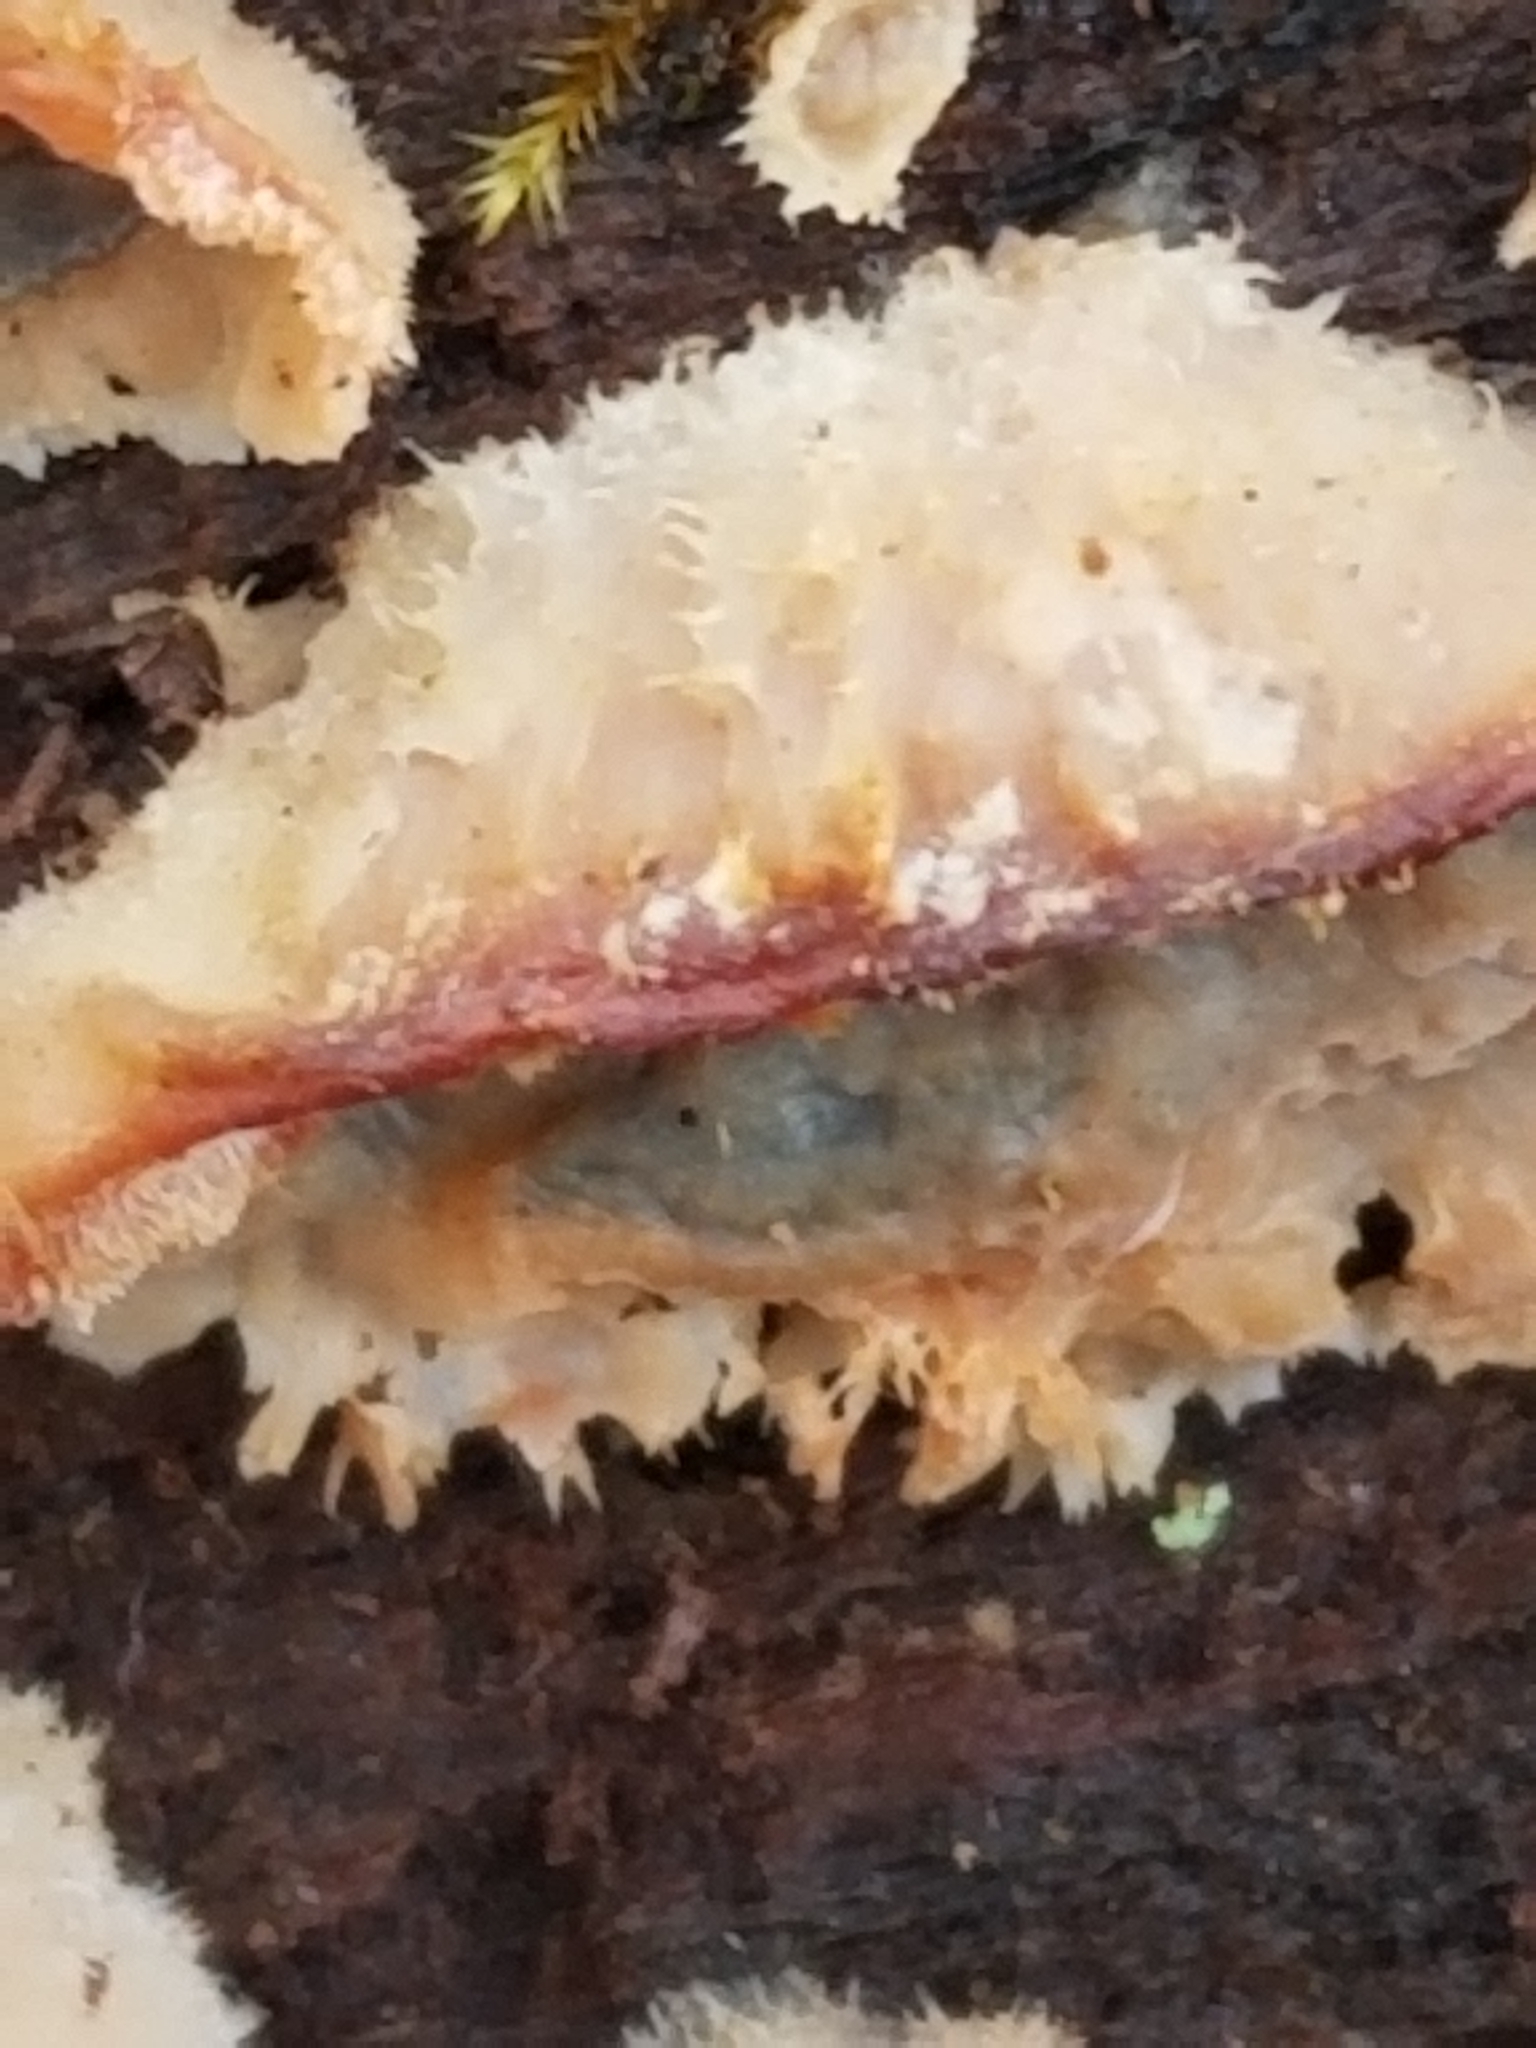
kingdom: Fungi
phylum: Basidiomycota
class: Agaricomycetes
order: Polyporales
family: Meruliaceae
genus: Phlebia
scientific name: Phlebia tremellosa
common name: Jelly rot
